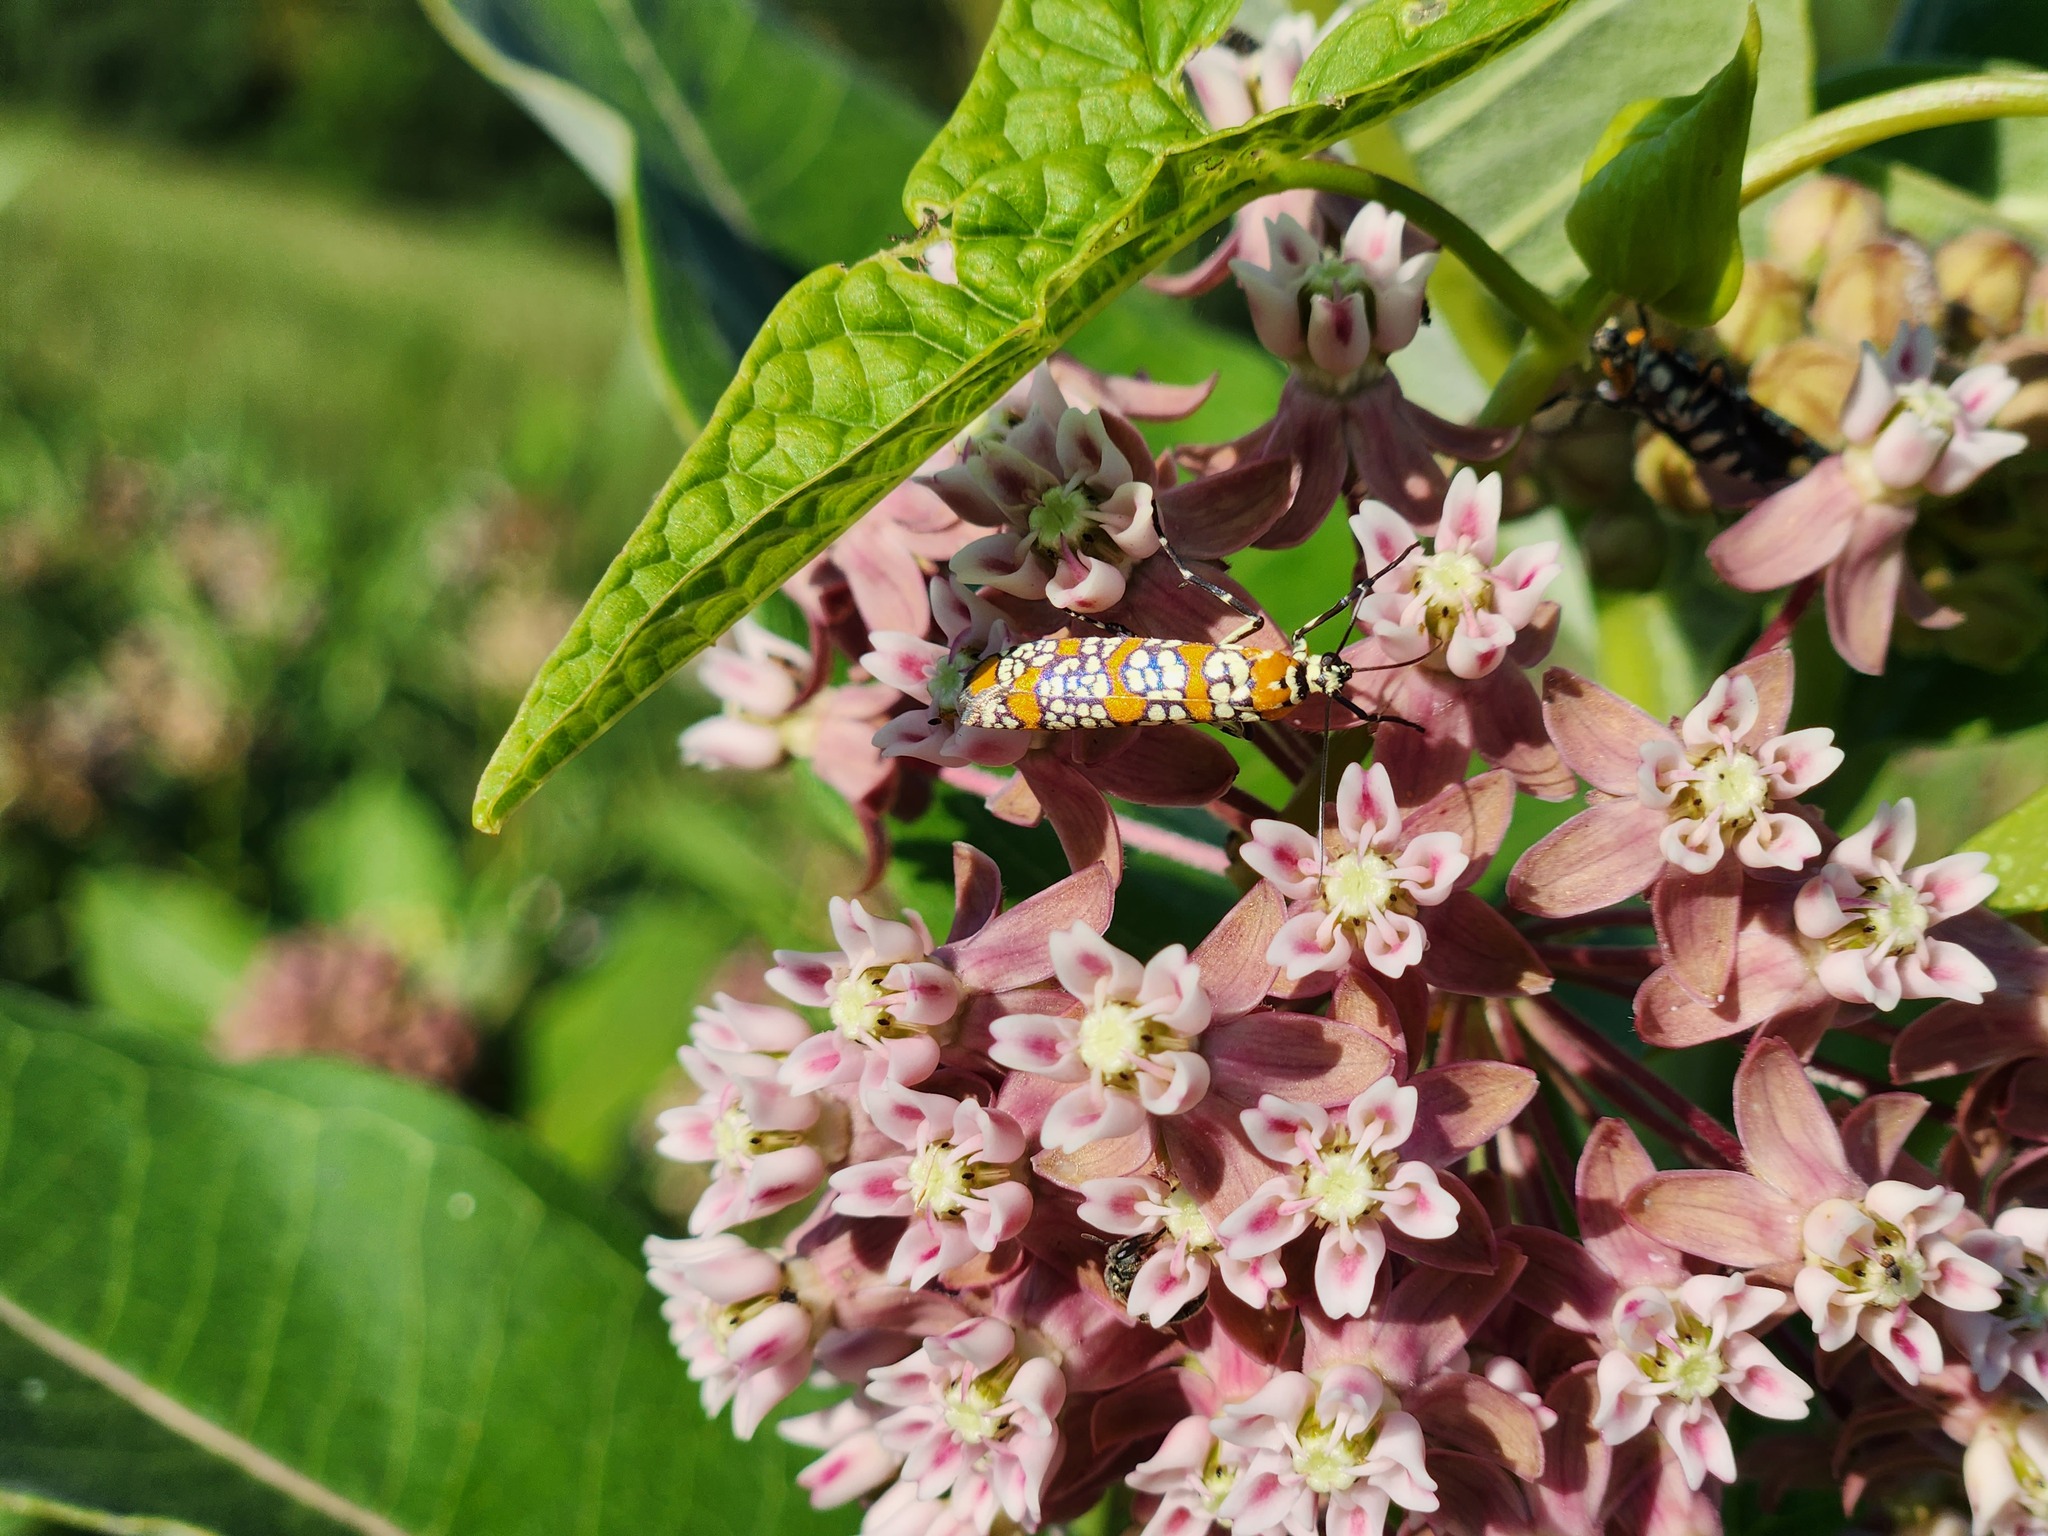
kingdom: Animalia
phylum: Arthropoda
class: Insecta
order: Lepidoptera
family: Attevidae
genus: Atteva
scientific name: Atteva punctella
